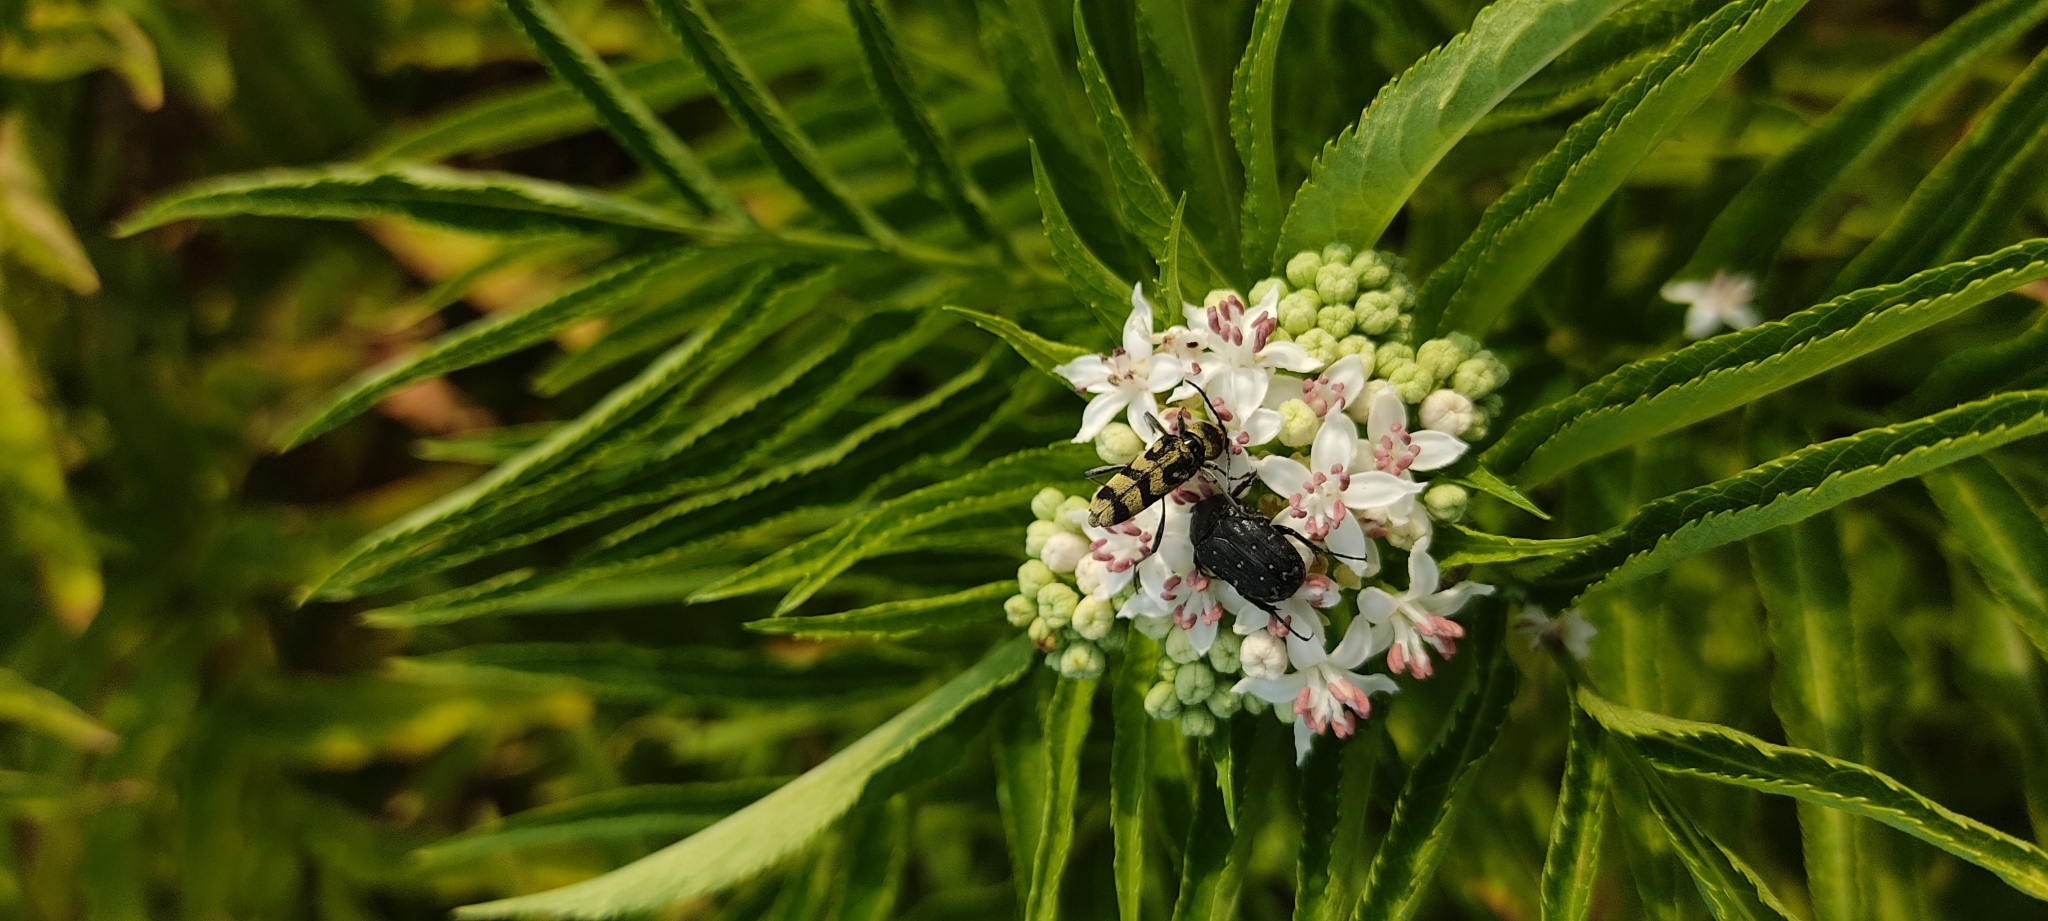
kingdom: Plantae
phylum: Tracheophyta
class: Magnoliopsida
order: Dipsacales
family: Viburnaceae
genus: Sambucus
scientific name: Sambucus ebulus
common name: Dwarf elder
